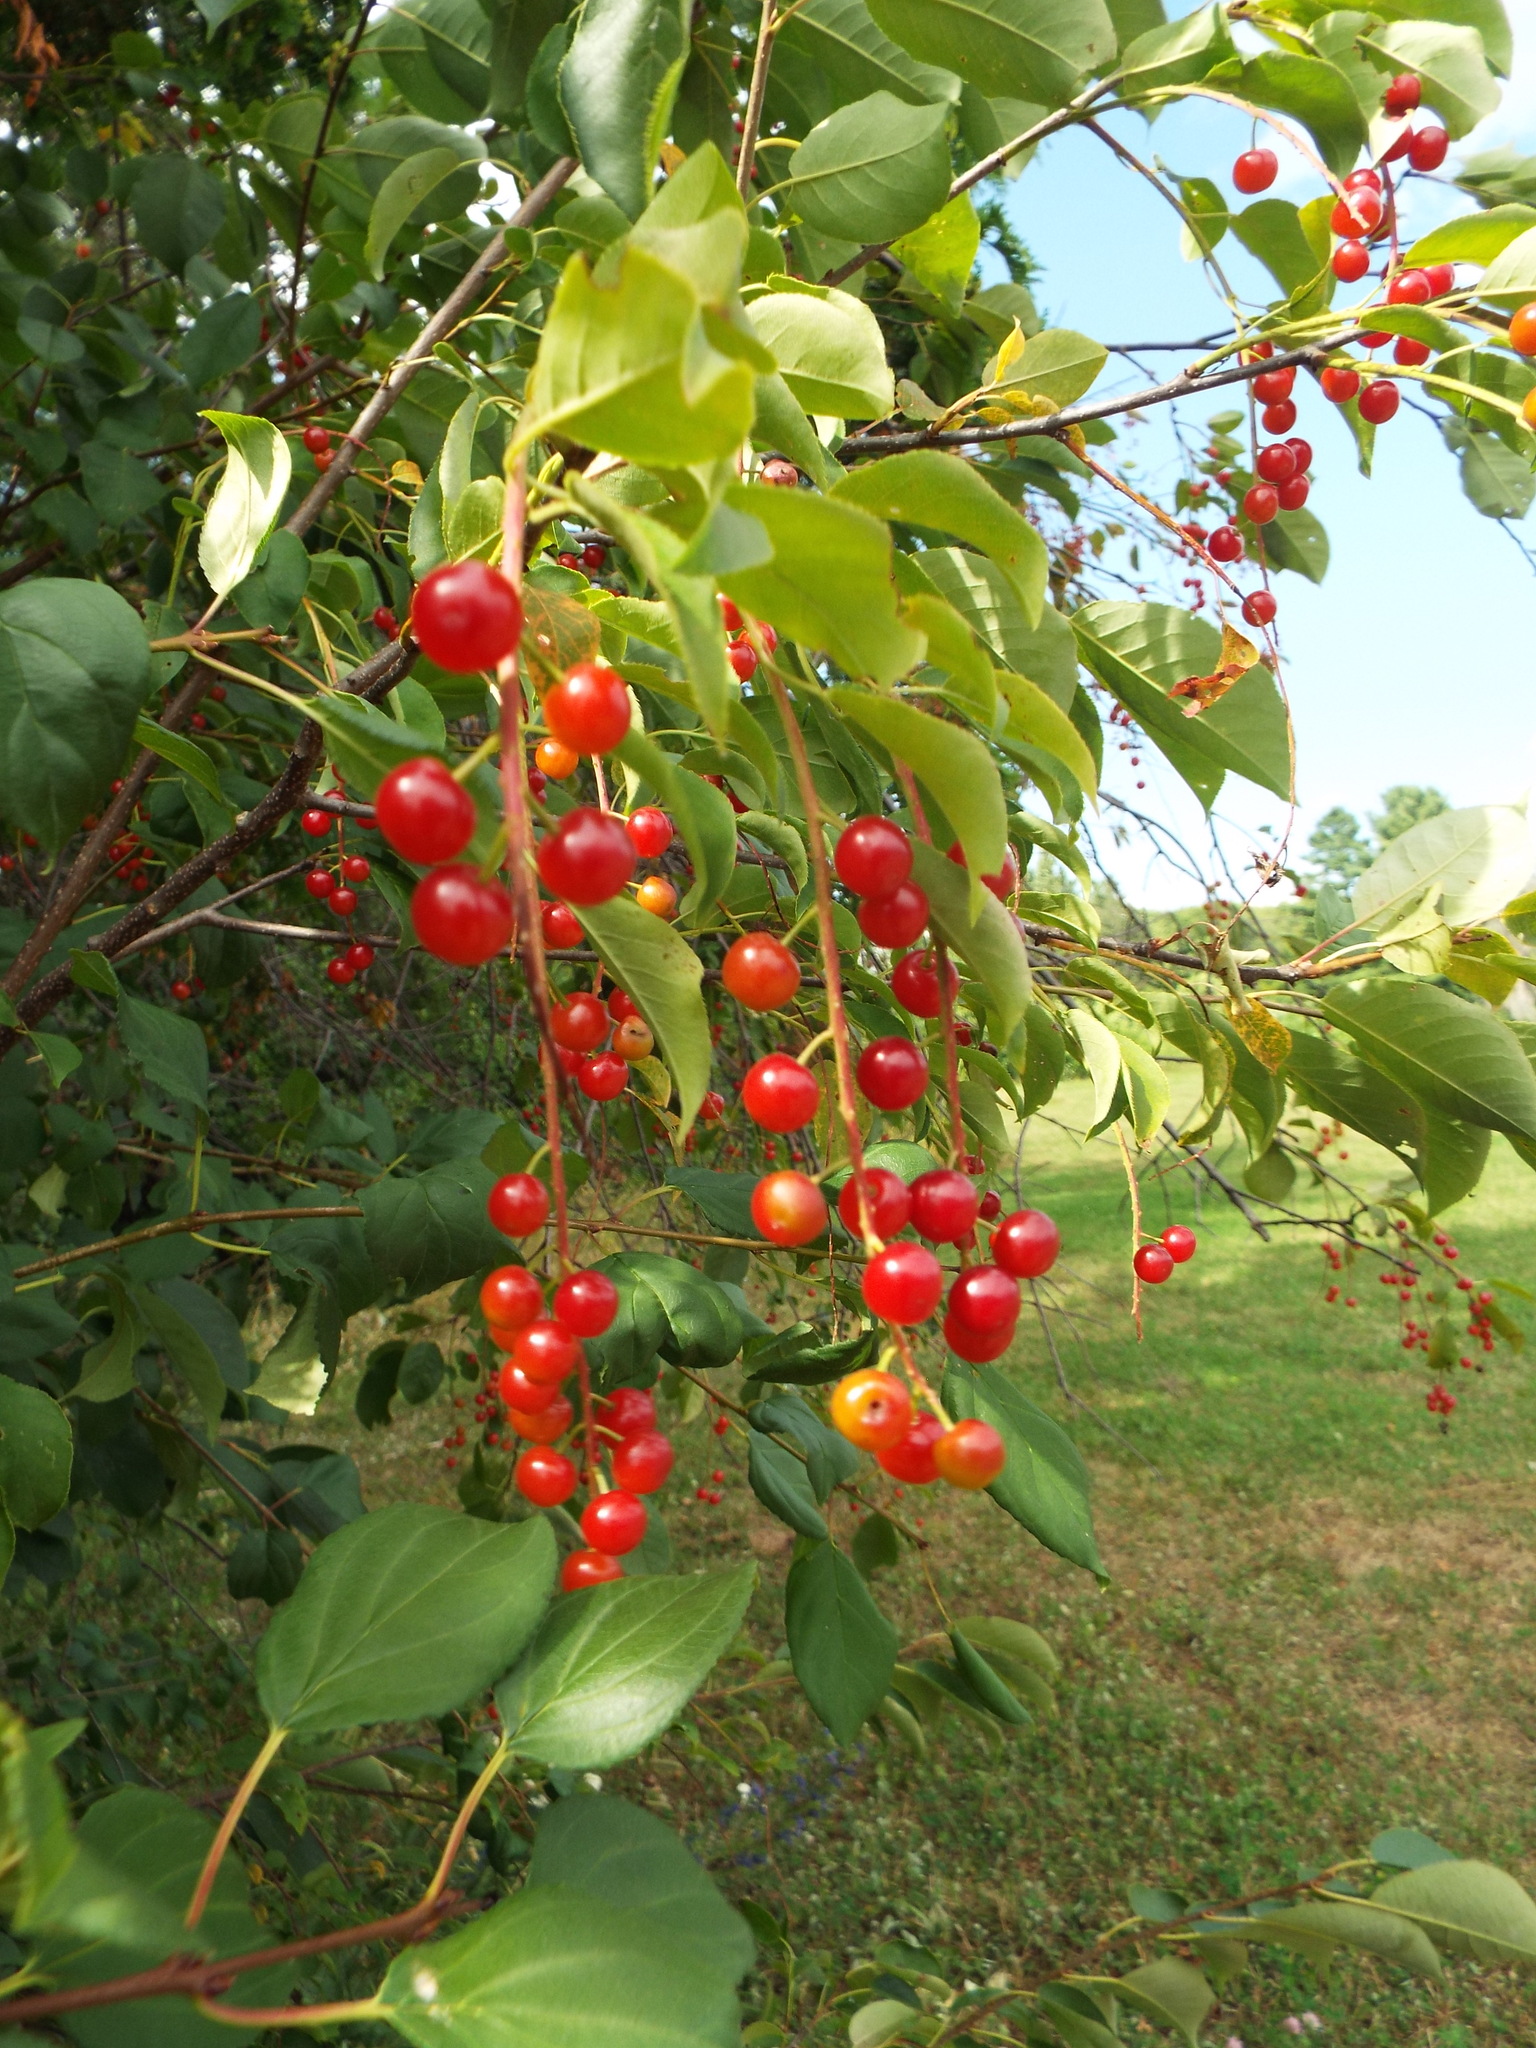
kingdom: Plantae
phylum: Tracheophyta
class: Magnoliopsida
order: Rosales
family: Rosaceae
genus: Prunus
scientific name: Prunus virginiana
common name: Chokecherry
